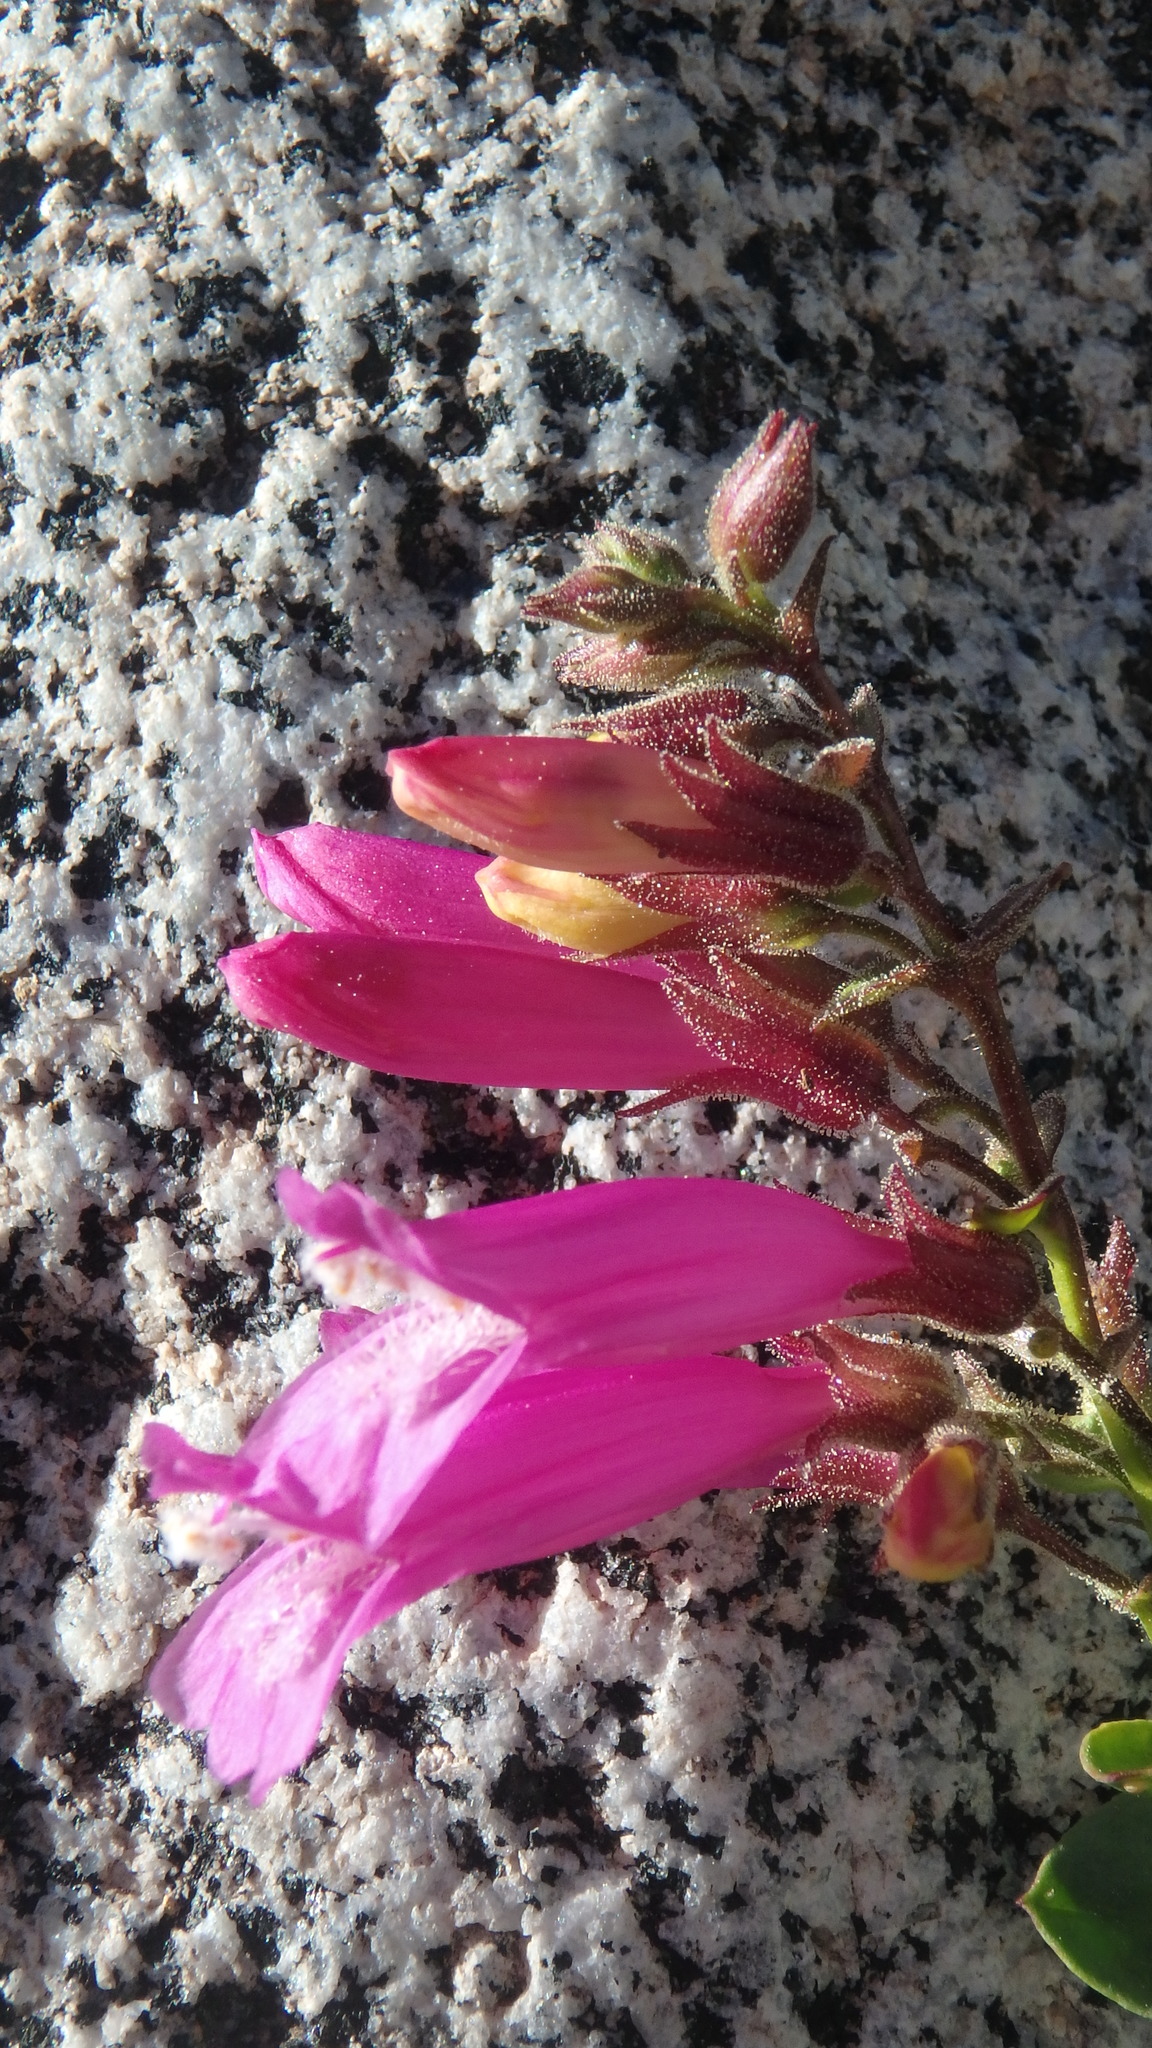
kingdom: Plantae
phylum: Tracheophyta
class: Magnoliopsida
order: Lamiales
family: Plantaginaceae
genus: Penstemon
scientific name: Penstemon newberryi
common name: Mountain-pride
